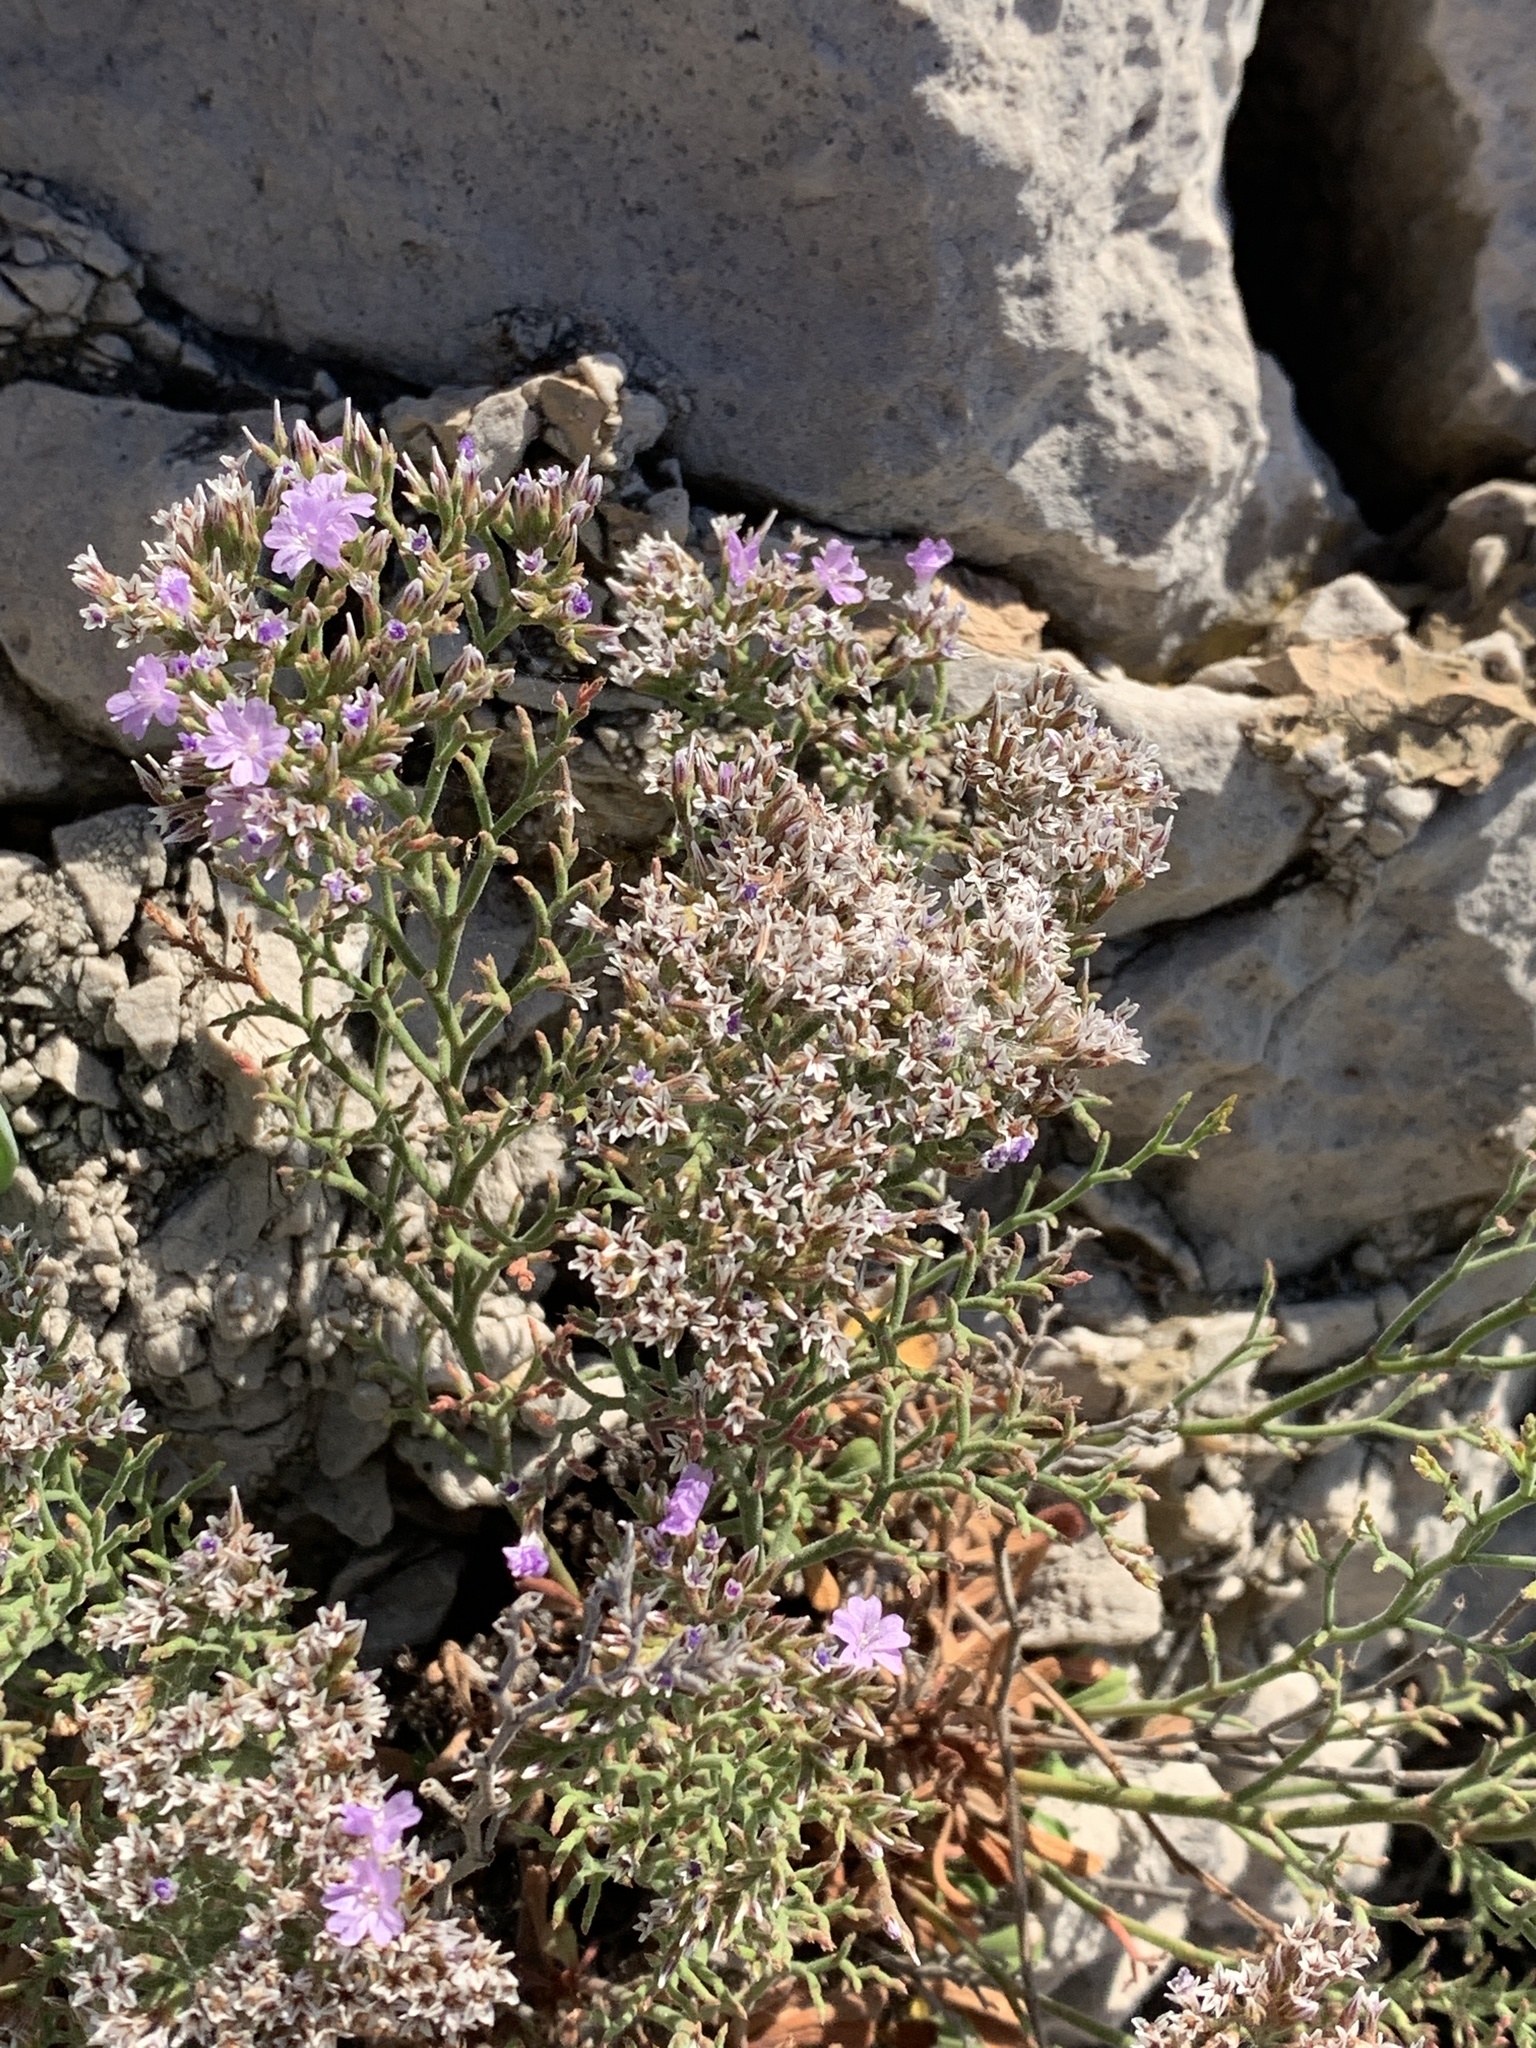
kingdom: Plantae
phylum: Tracheophyta
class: Magnoliopsida
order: Caryophyllales
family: Plumbaginaceae
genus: Limonium
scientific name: Limonium cordatum
